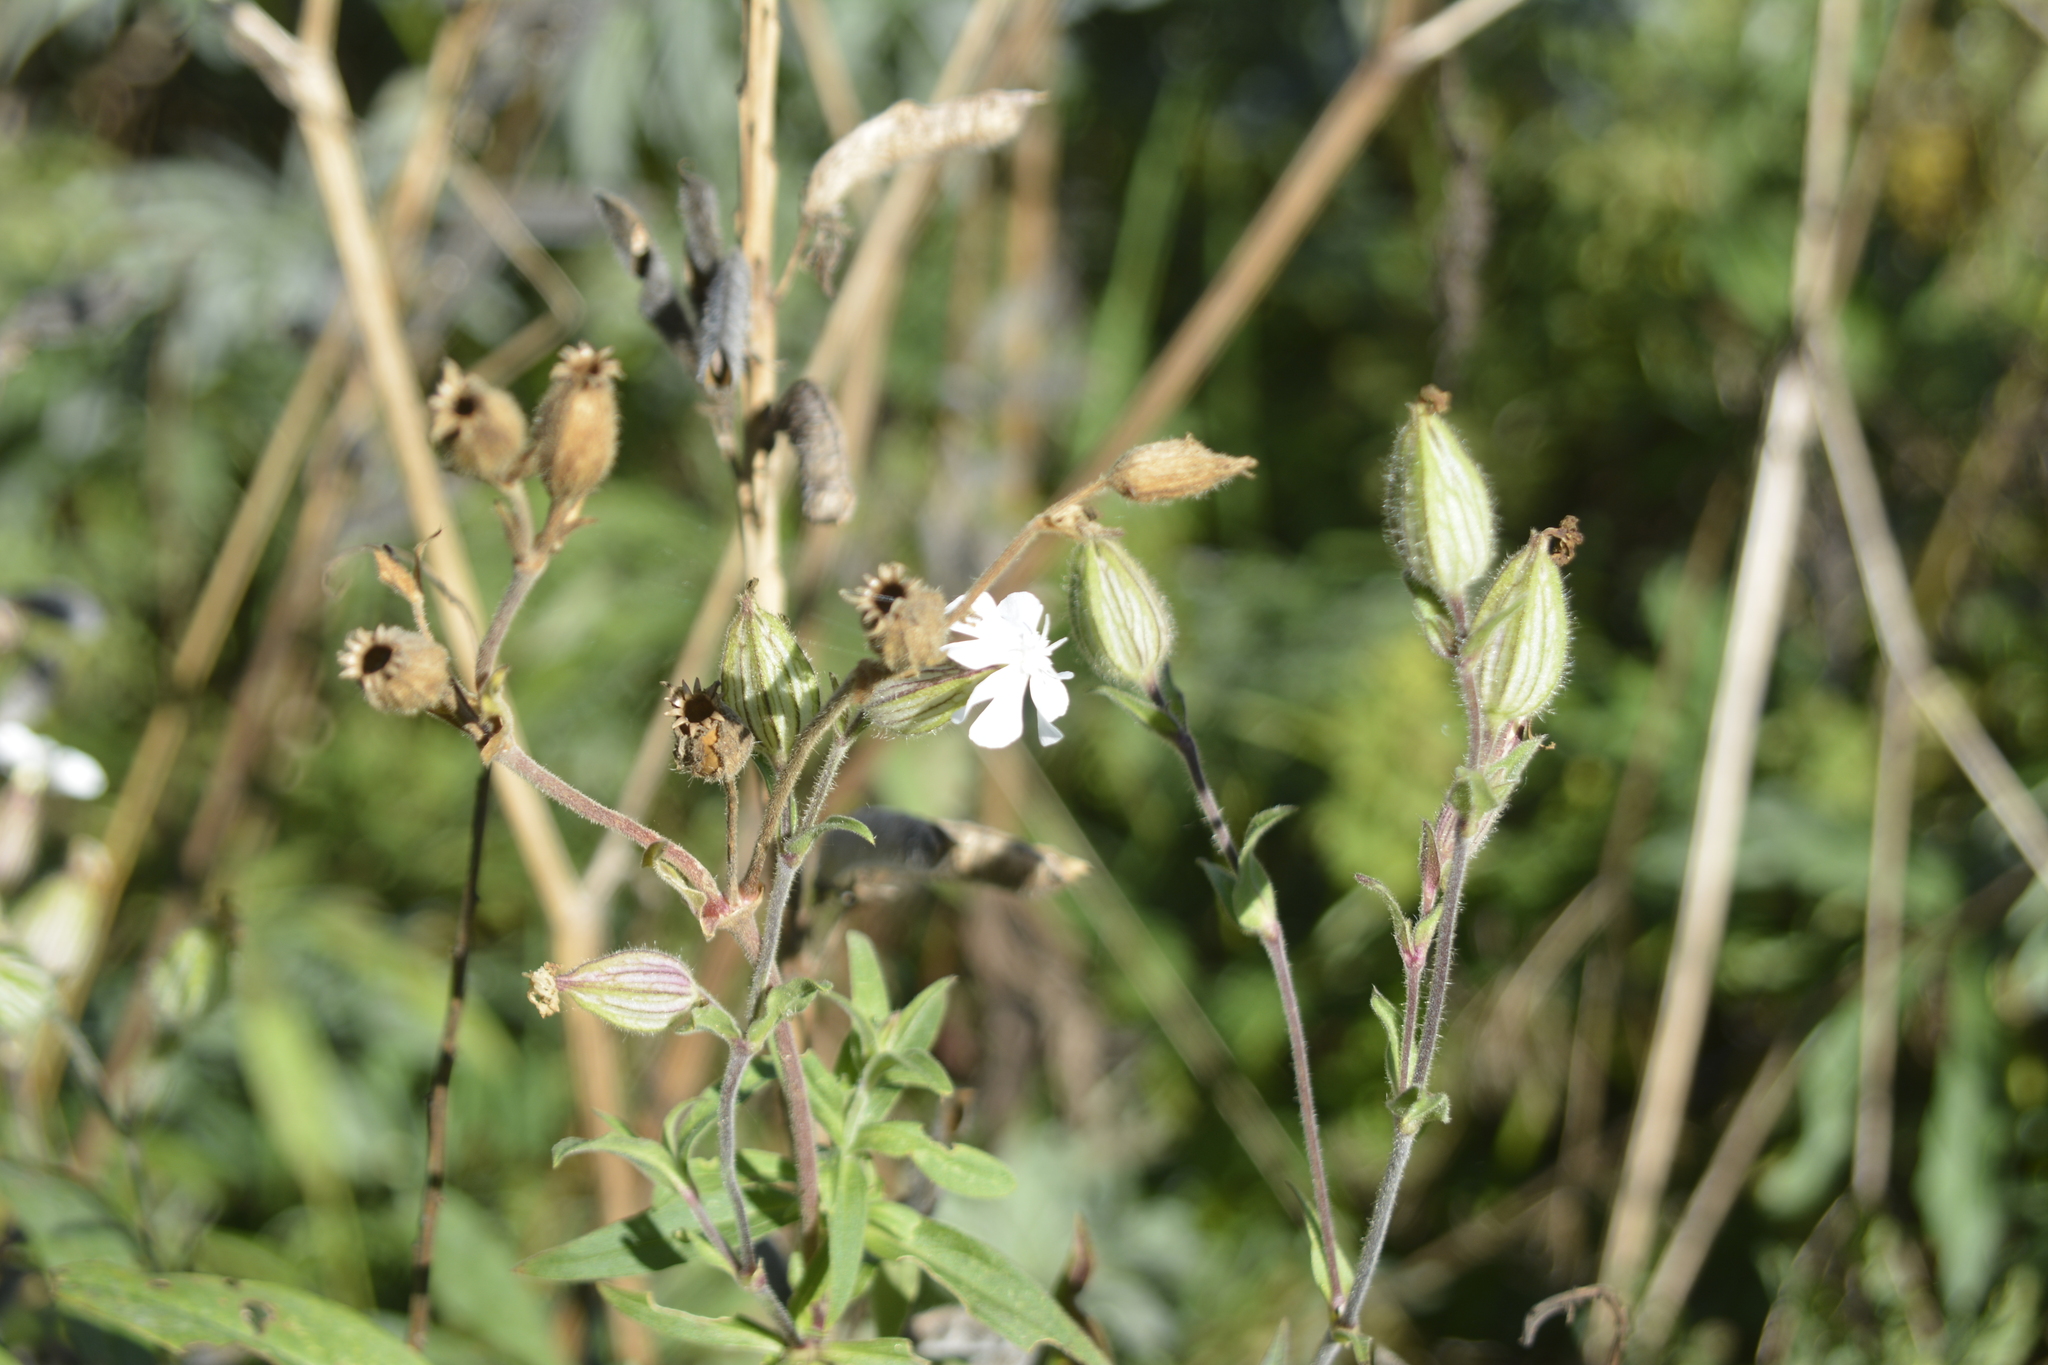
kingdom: Plantae
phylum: Tracheophyta
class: Magnoliopsida
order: Caryophyllales
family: Caryophyllaceae
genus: Silene
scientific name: Silene latifolia
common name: White campion
